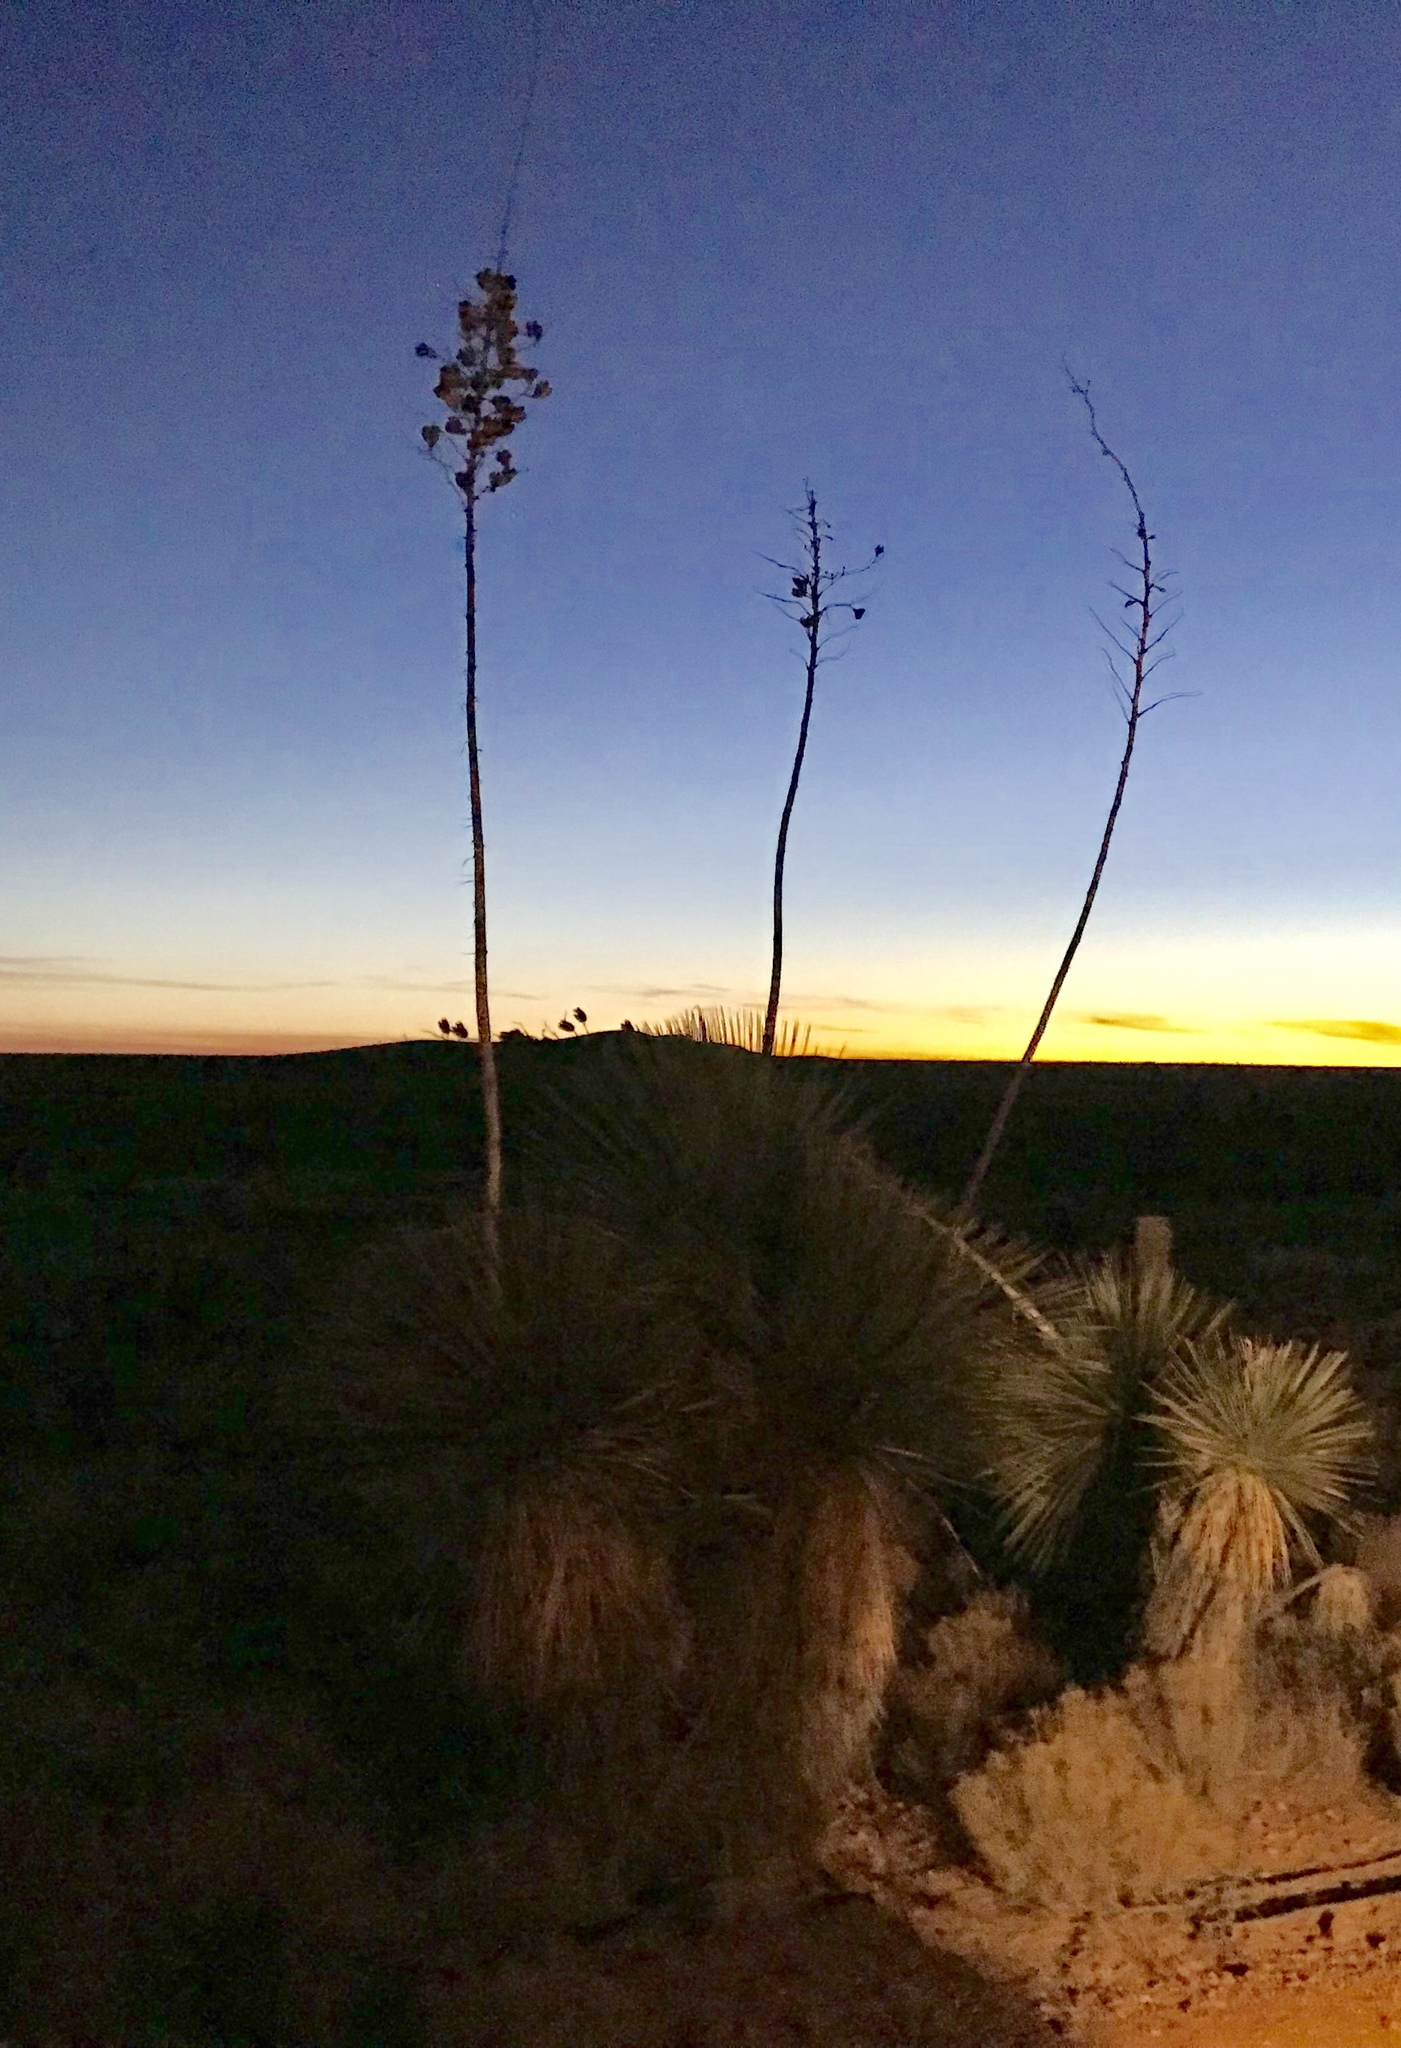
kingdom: Plantae
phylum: Tracheophyta
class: Liliopsida
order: Asparagales
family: Asparagaceae
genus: Yucca
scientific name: Yucca elata
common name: Palmella
